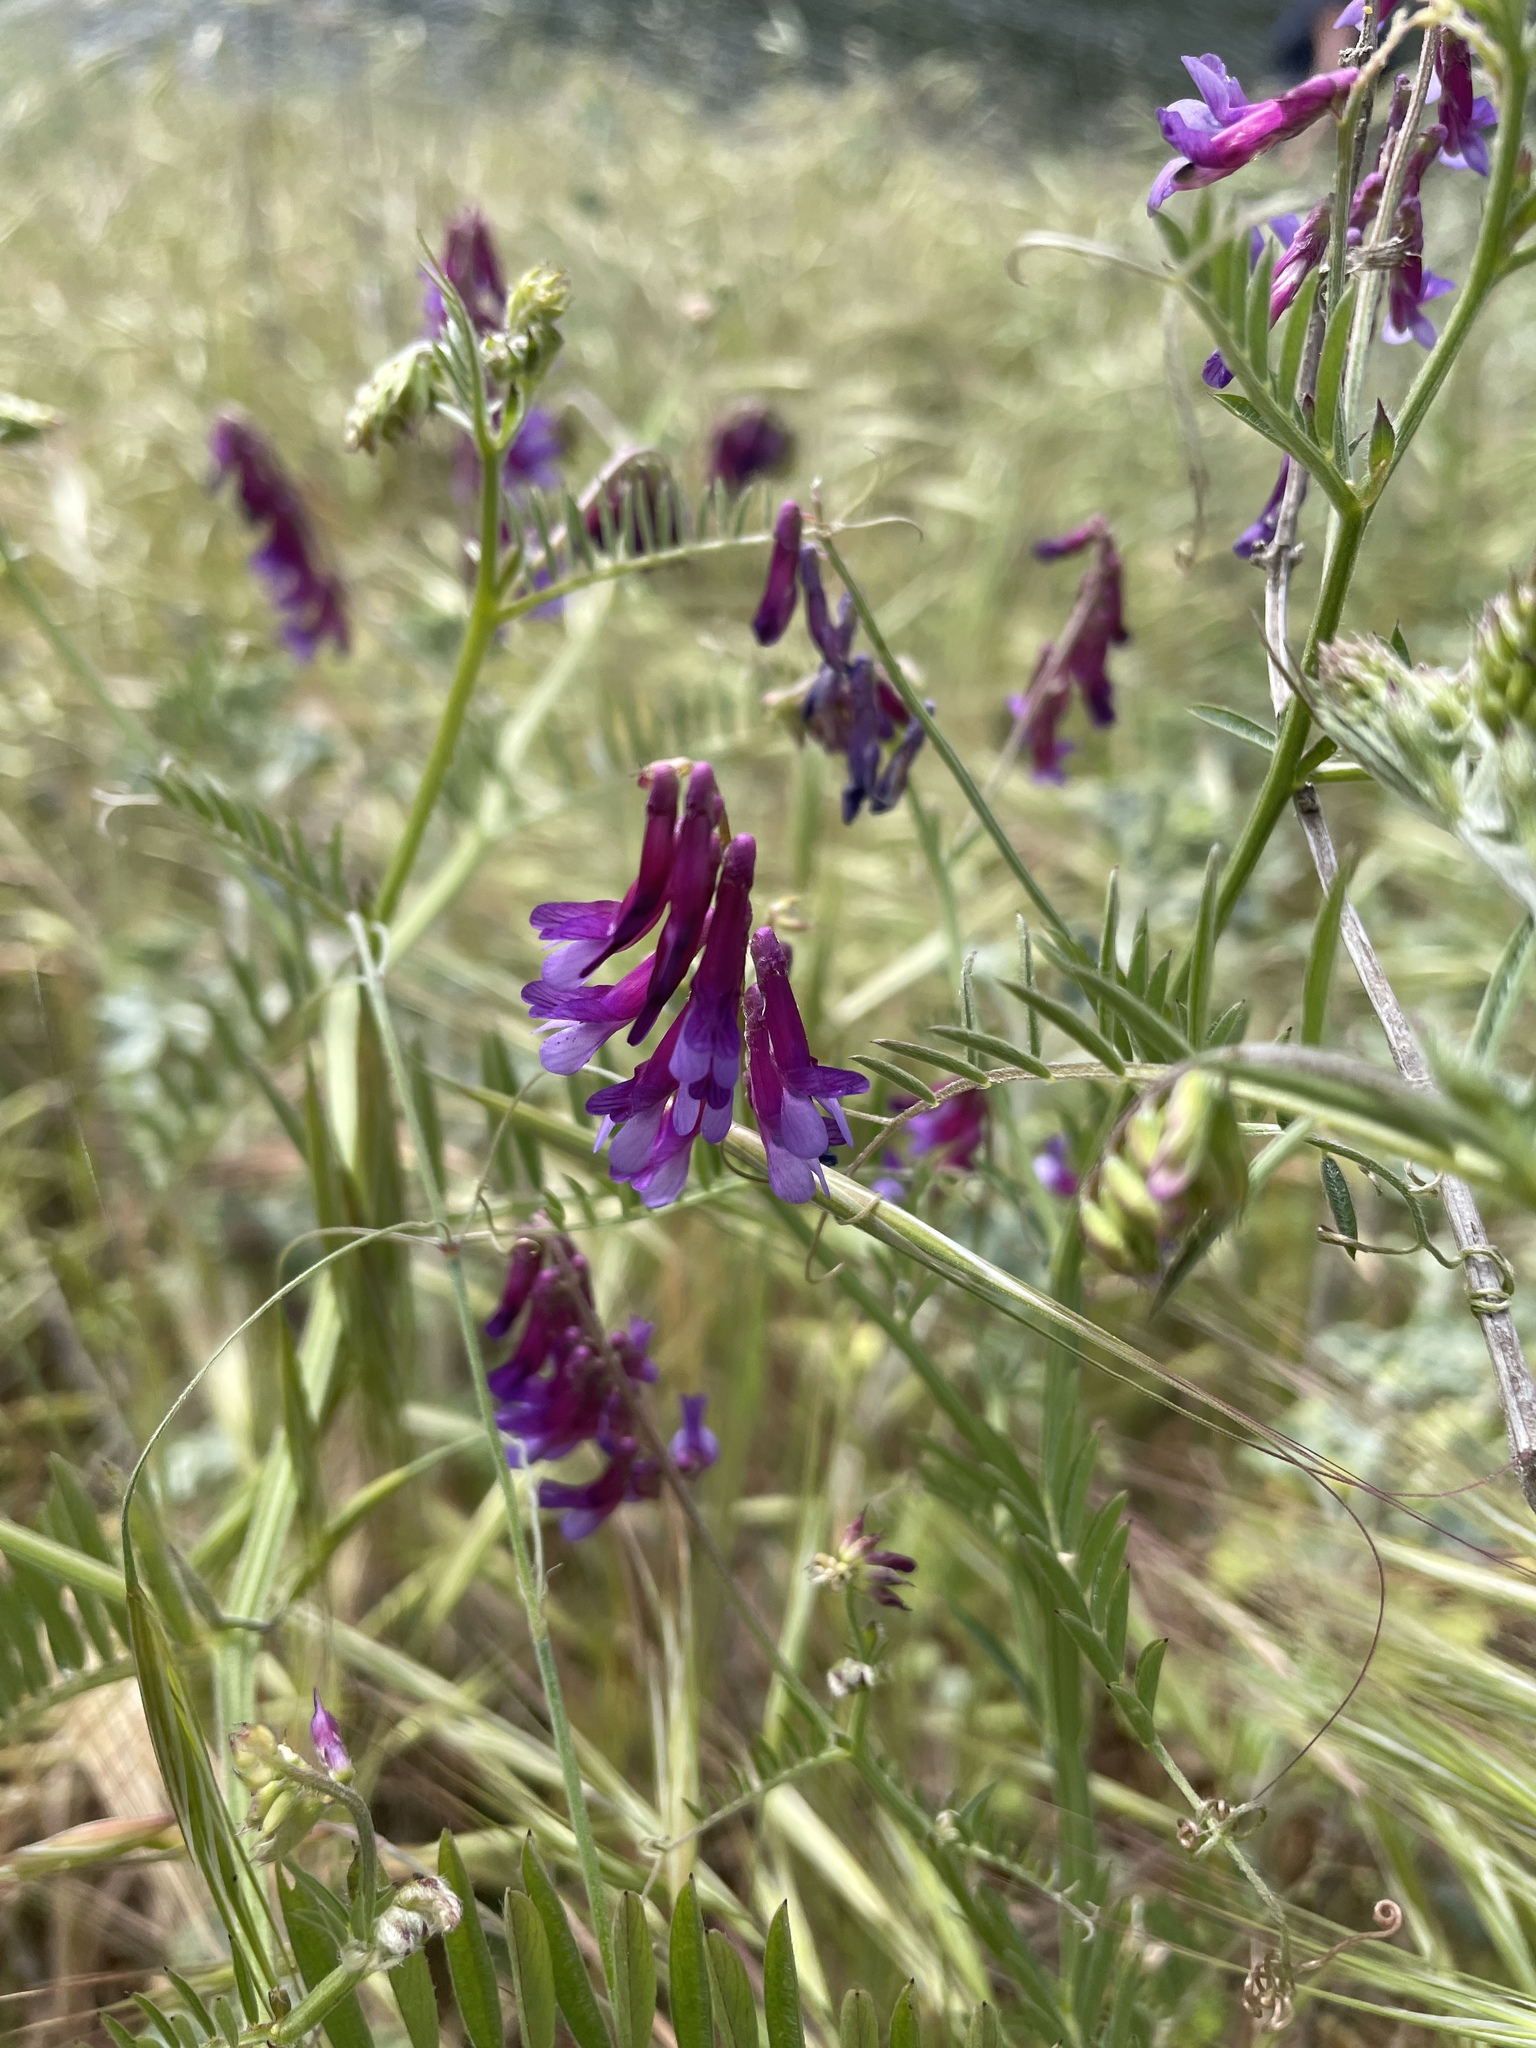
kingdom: Plantae
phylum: Tracheophyta
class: Magnoliopsida
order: Fabales
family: Fabaceae
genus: Vicia
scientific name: Vicia villosa
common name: Fodder vetch
